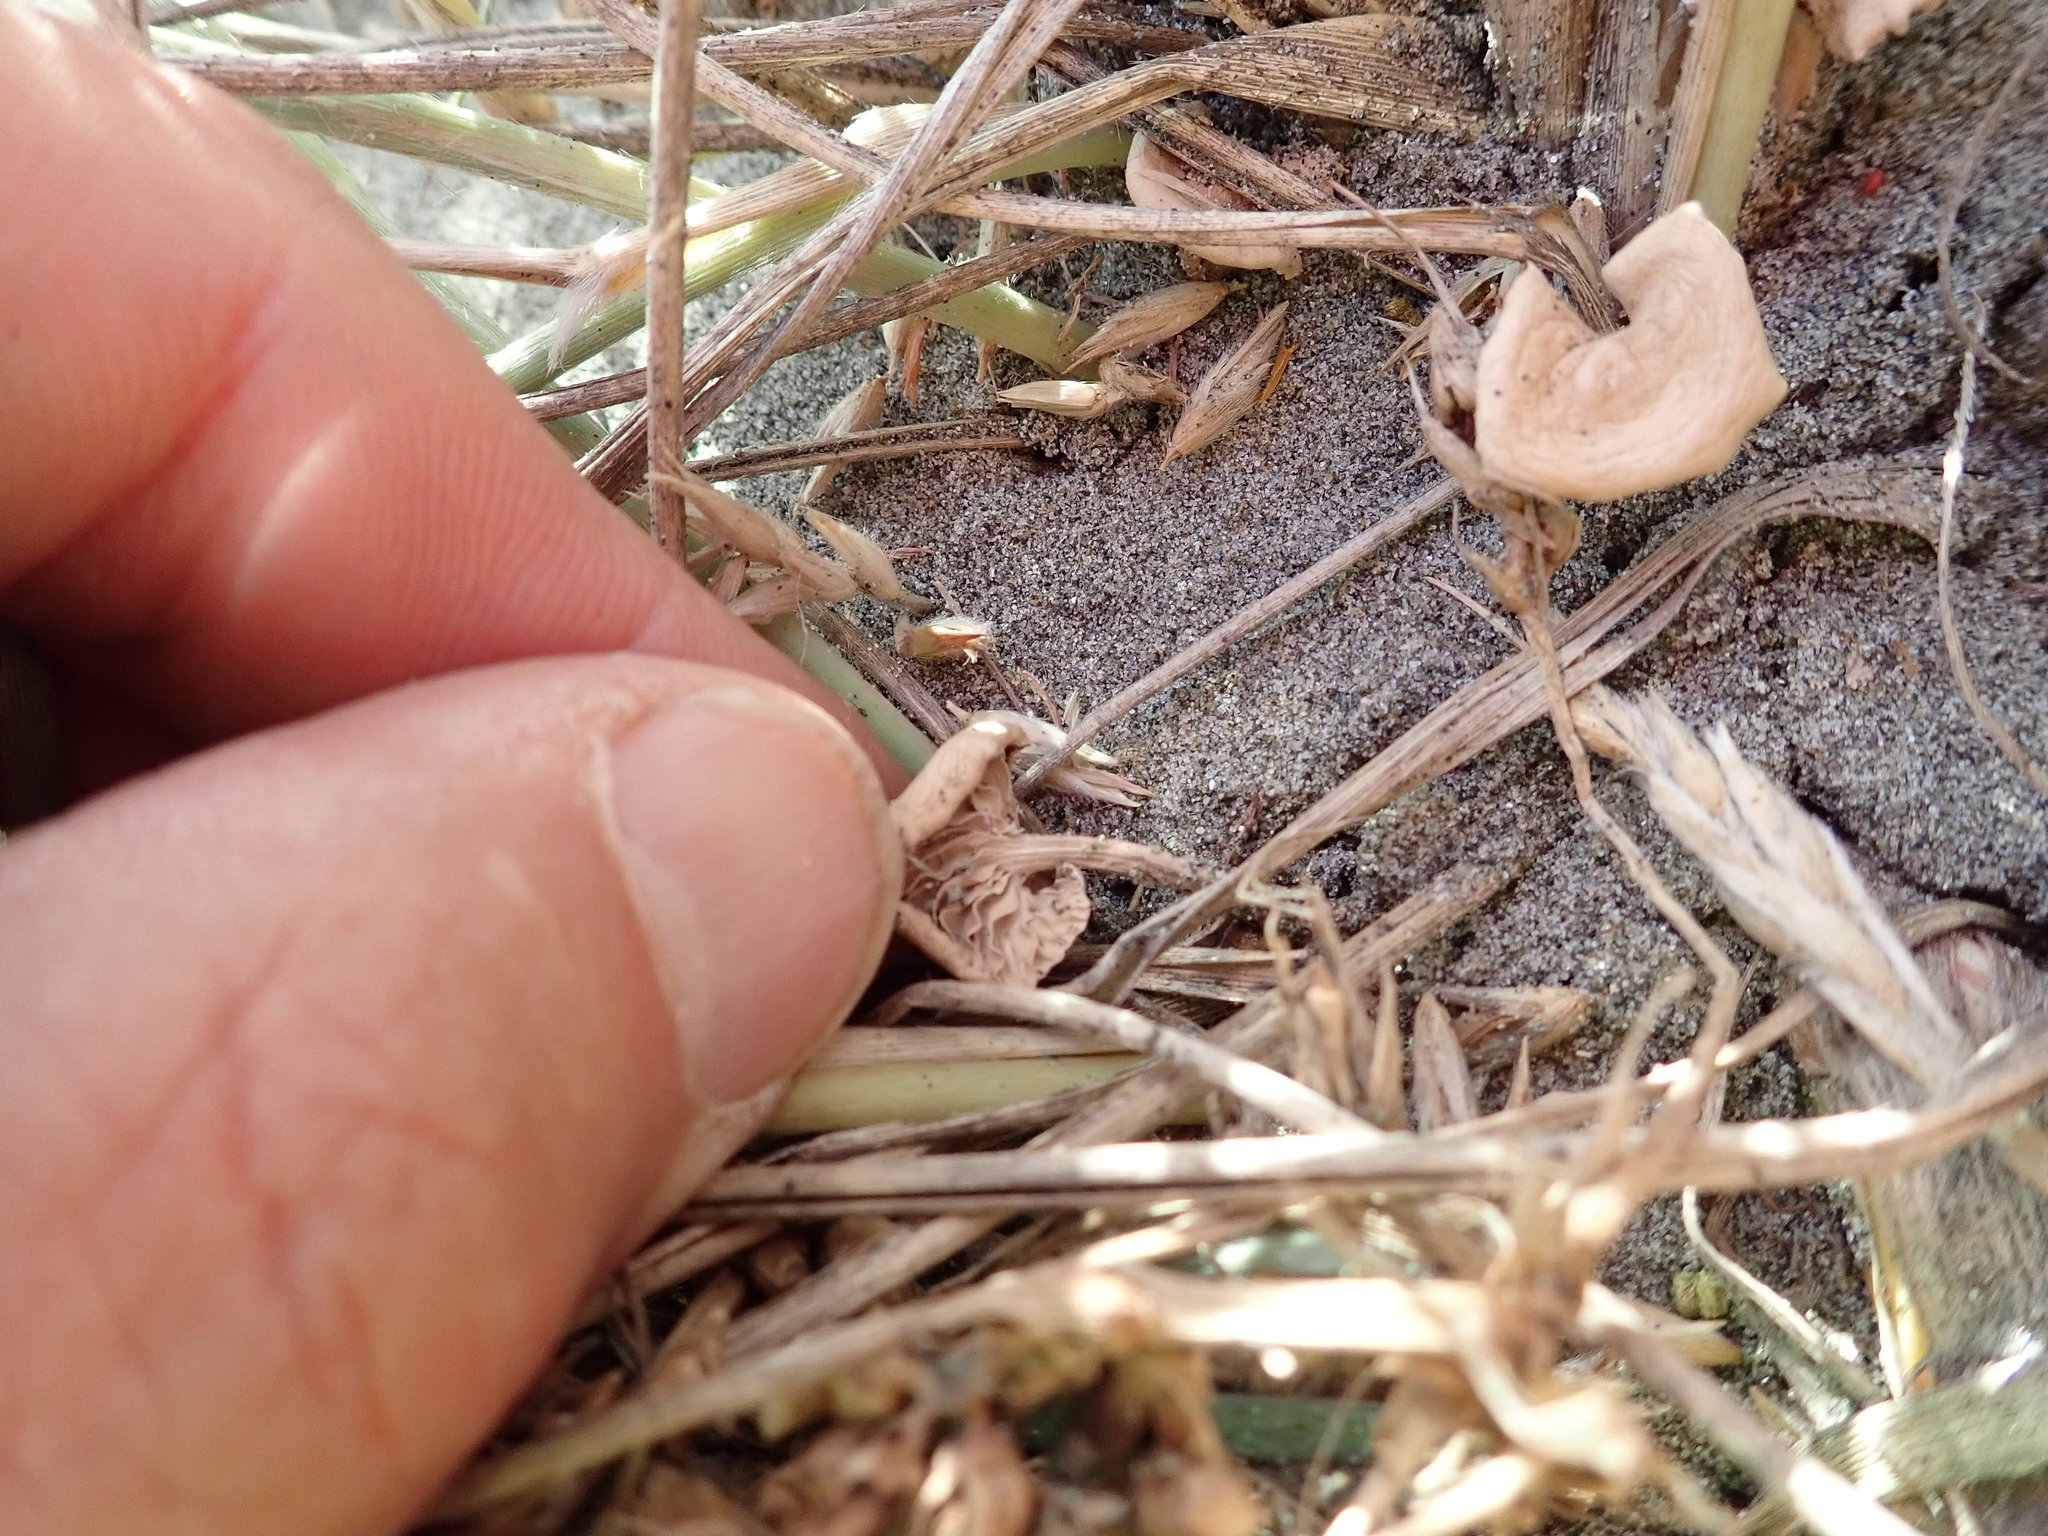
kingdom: Fungi
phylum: Basidiomycota
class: Agaricomycetes
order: Agaricales
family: Marasmiaceae
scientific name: Marasmiaceae
